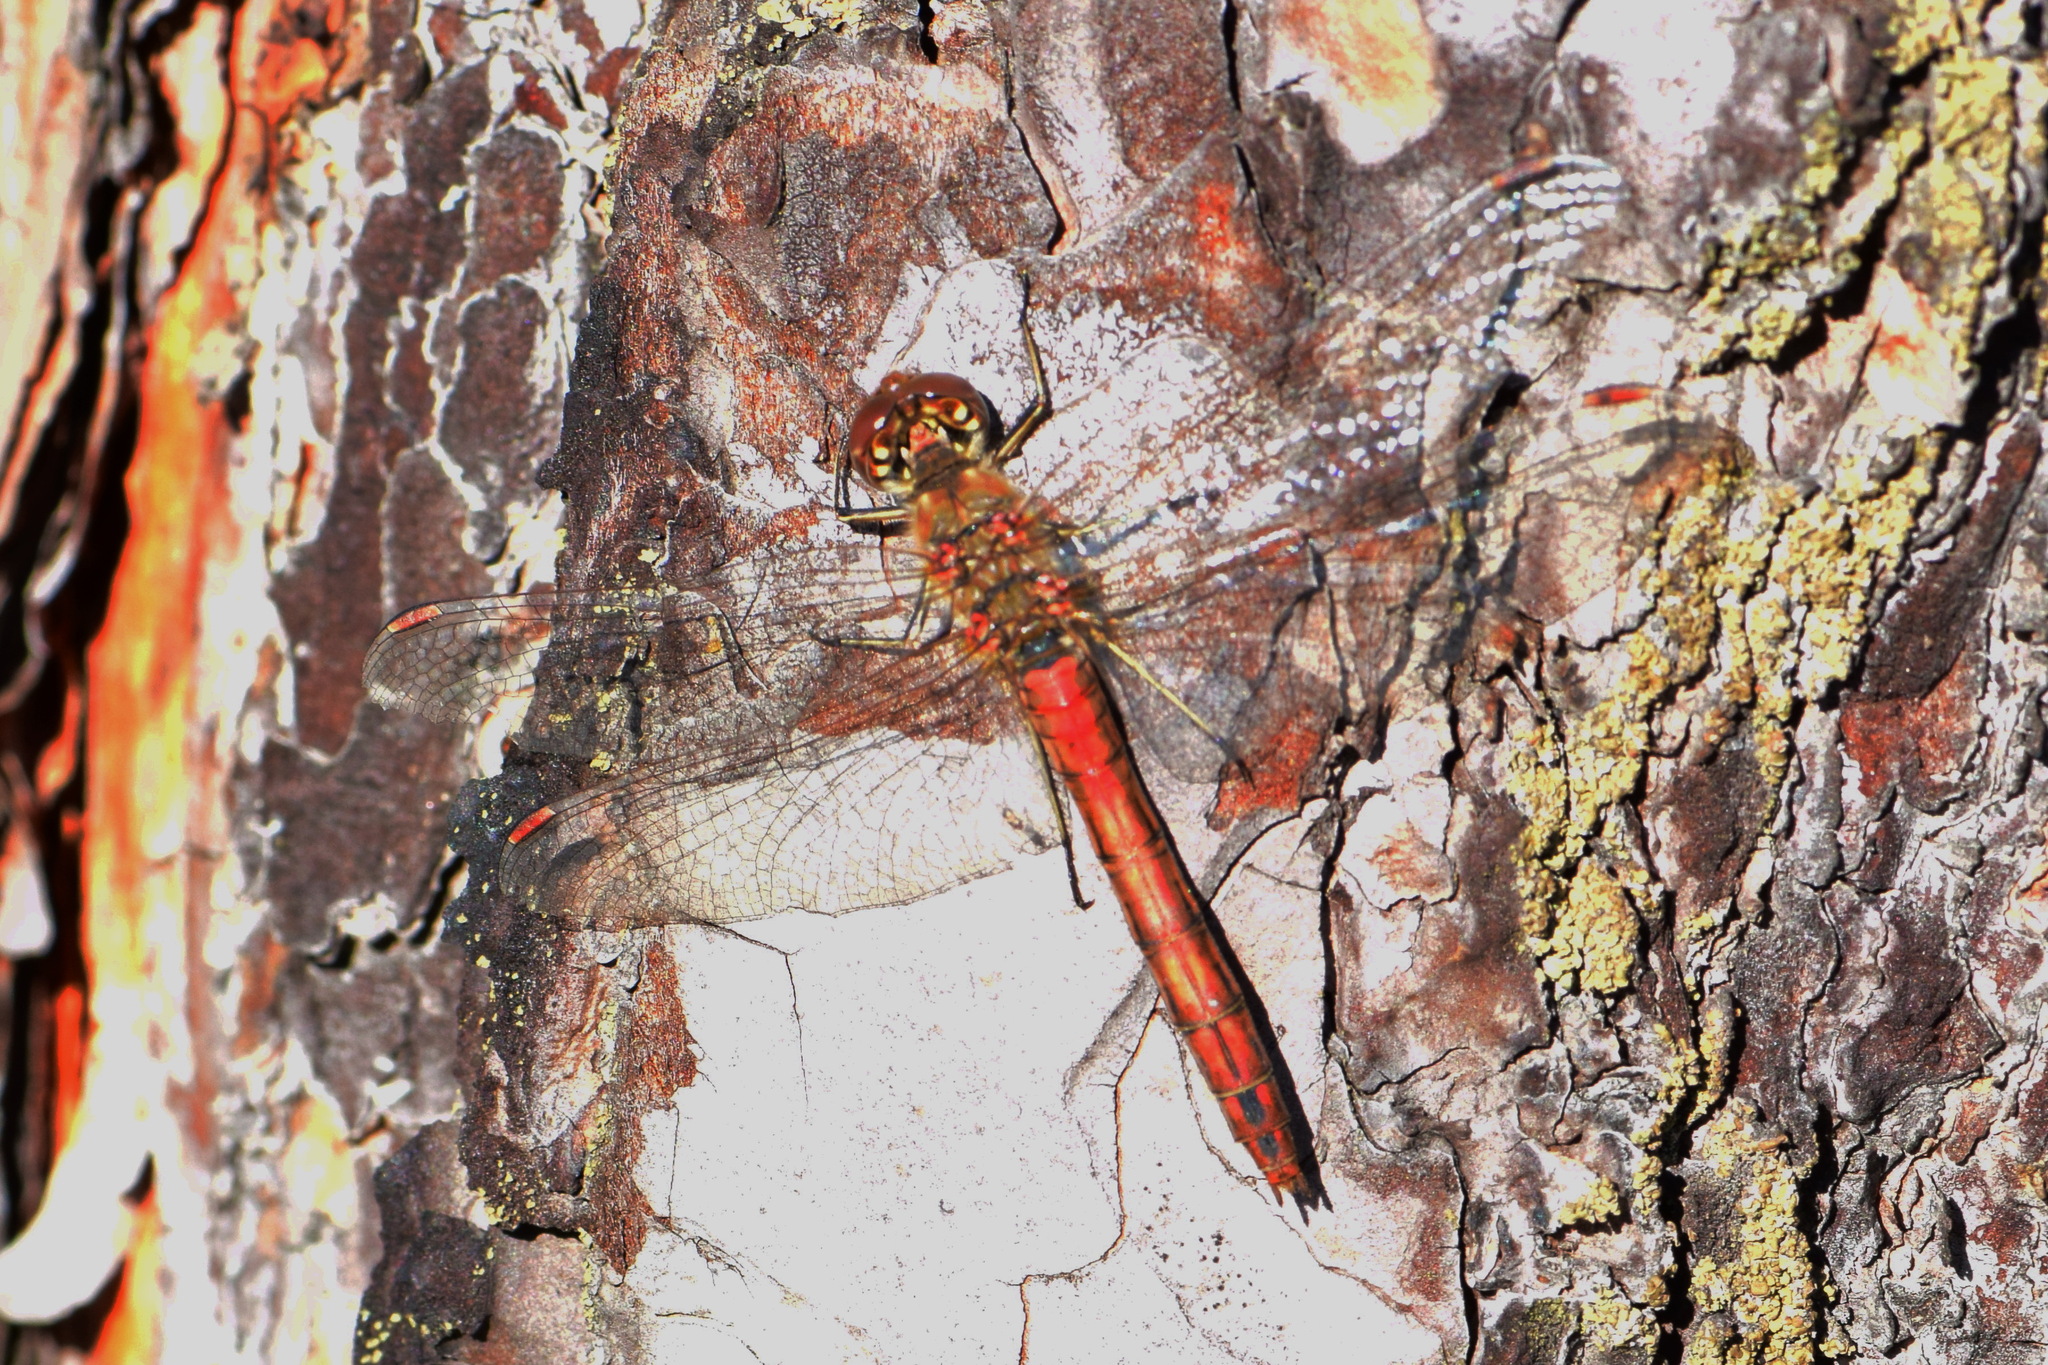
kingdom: Animalia
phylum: Arthropoda
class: Insecta
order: Odonata
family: Libellulidae
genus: Sympetrum
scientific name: Sympetrum vulgatum
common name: Vagrant darter
